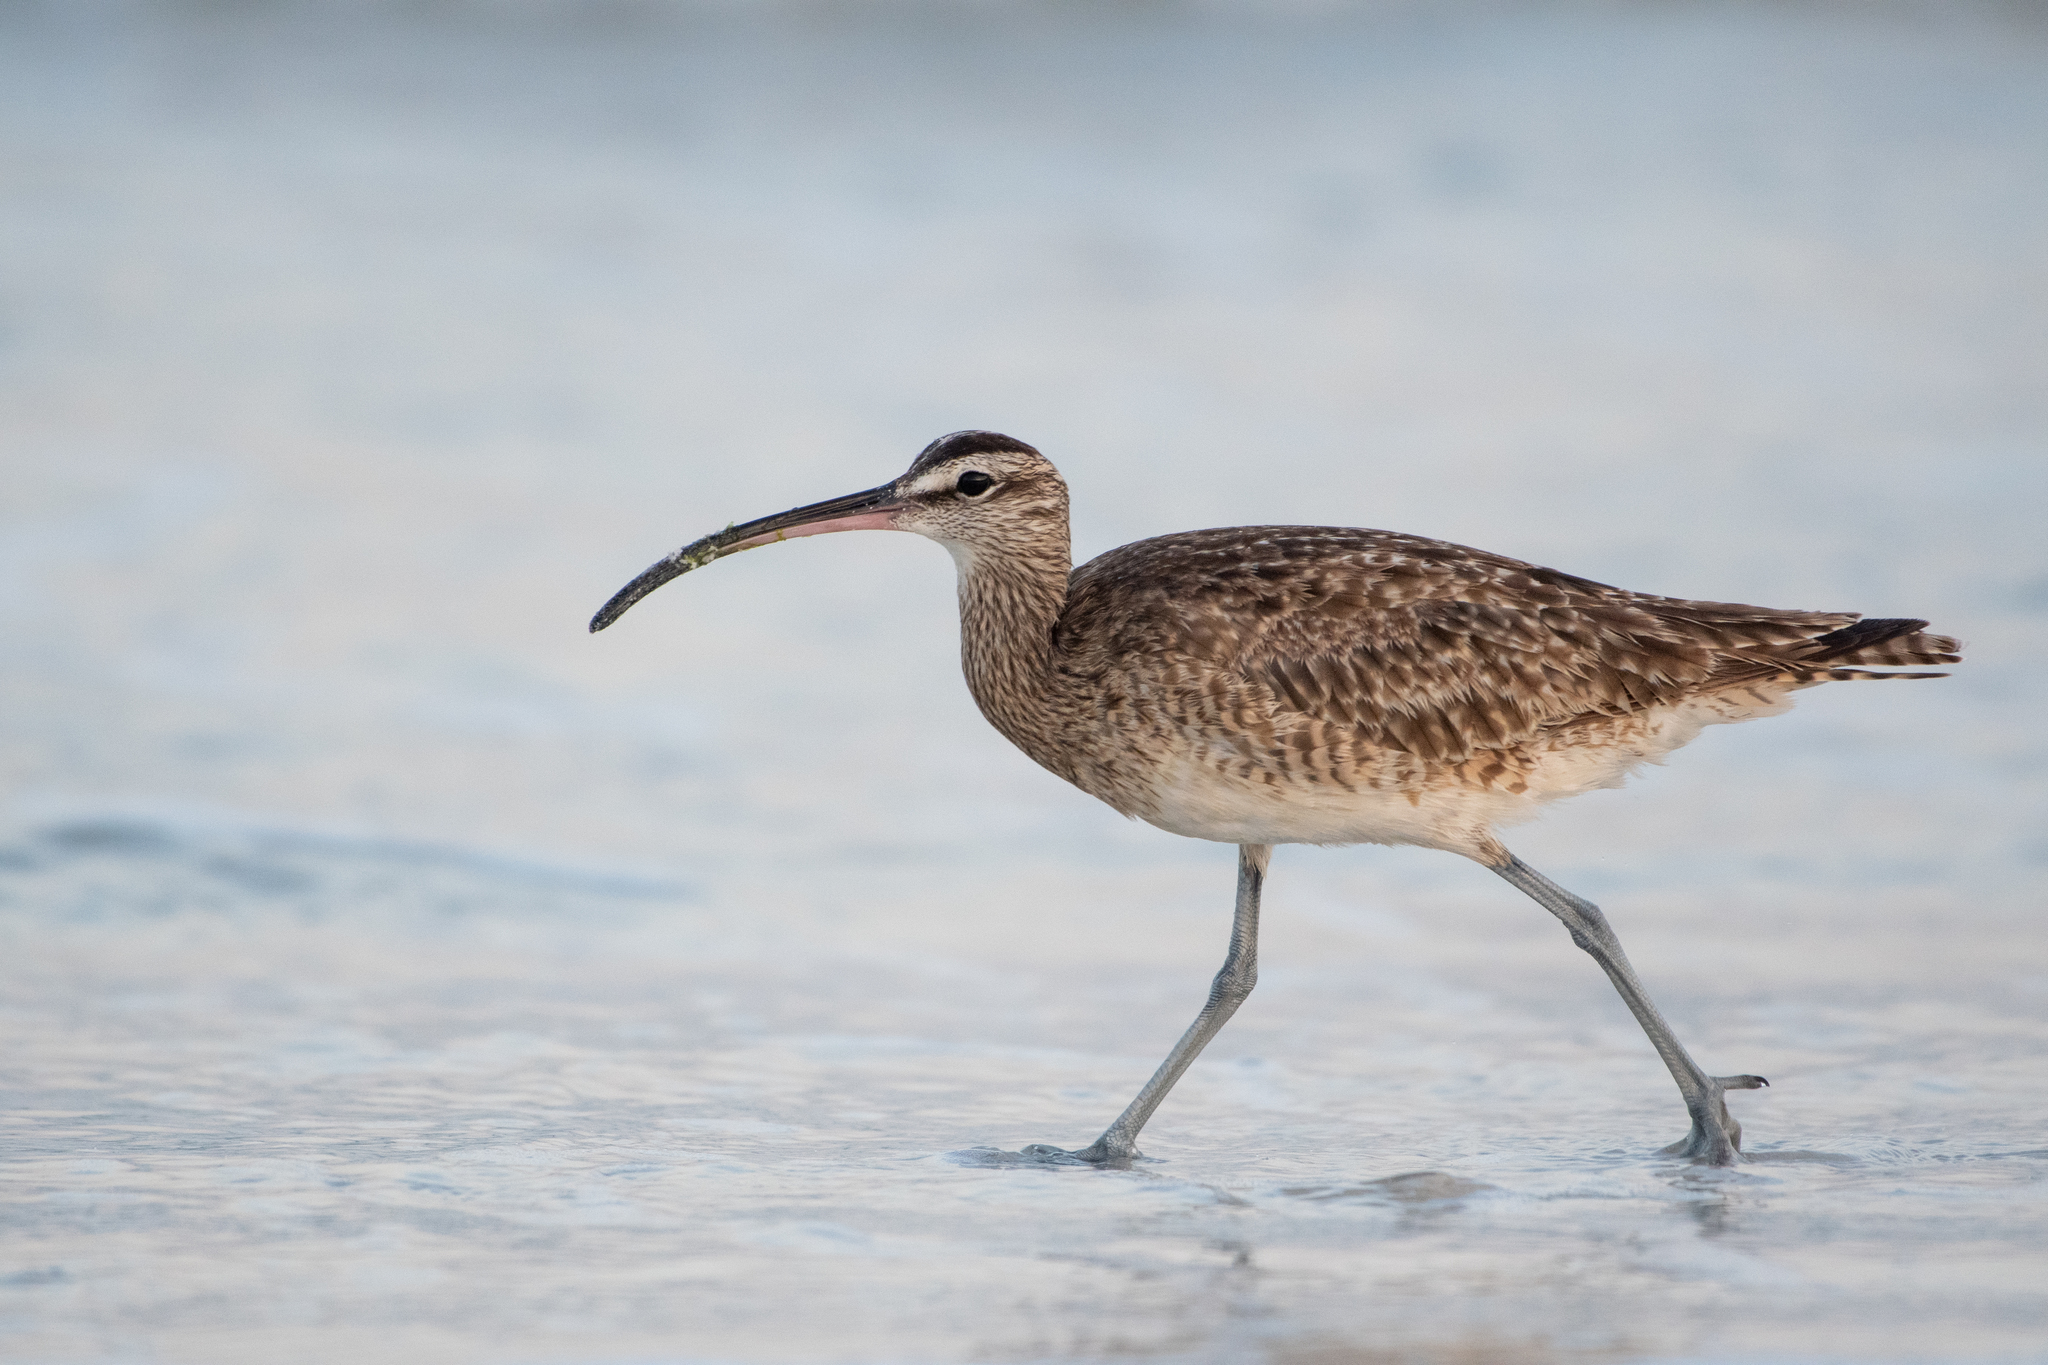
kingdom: Animalia
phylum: Chordata
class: Aves
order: Charadriiformes
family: Scolopacidae
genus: Numenius
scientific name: Numenius phaeopus
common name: Whimbrel
